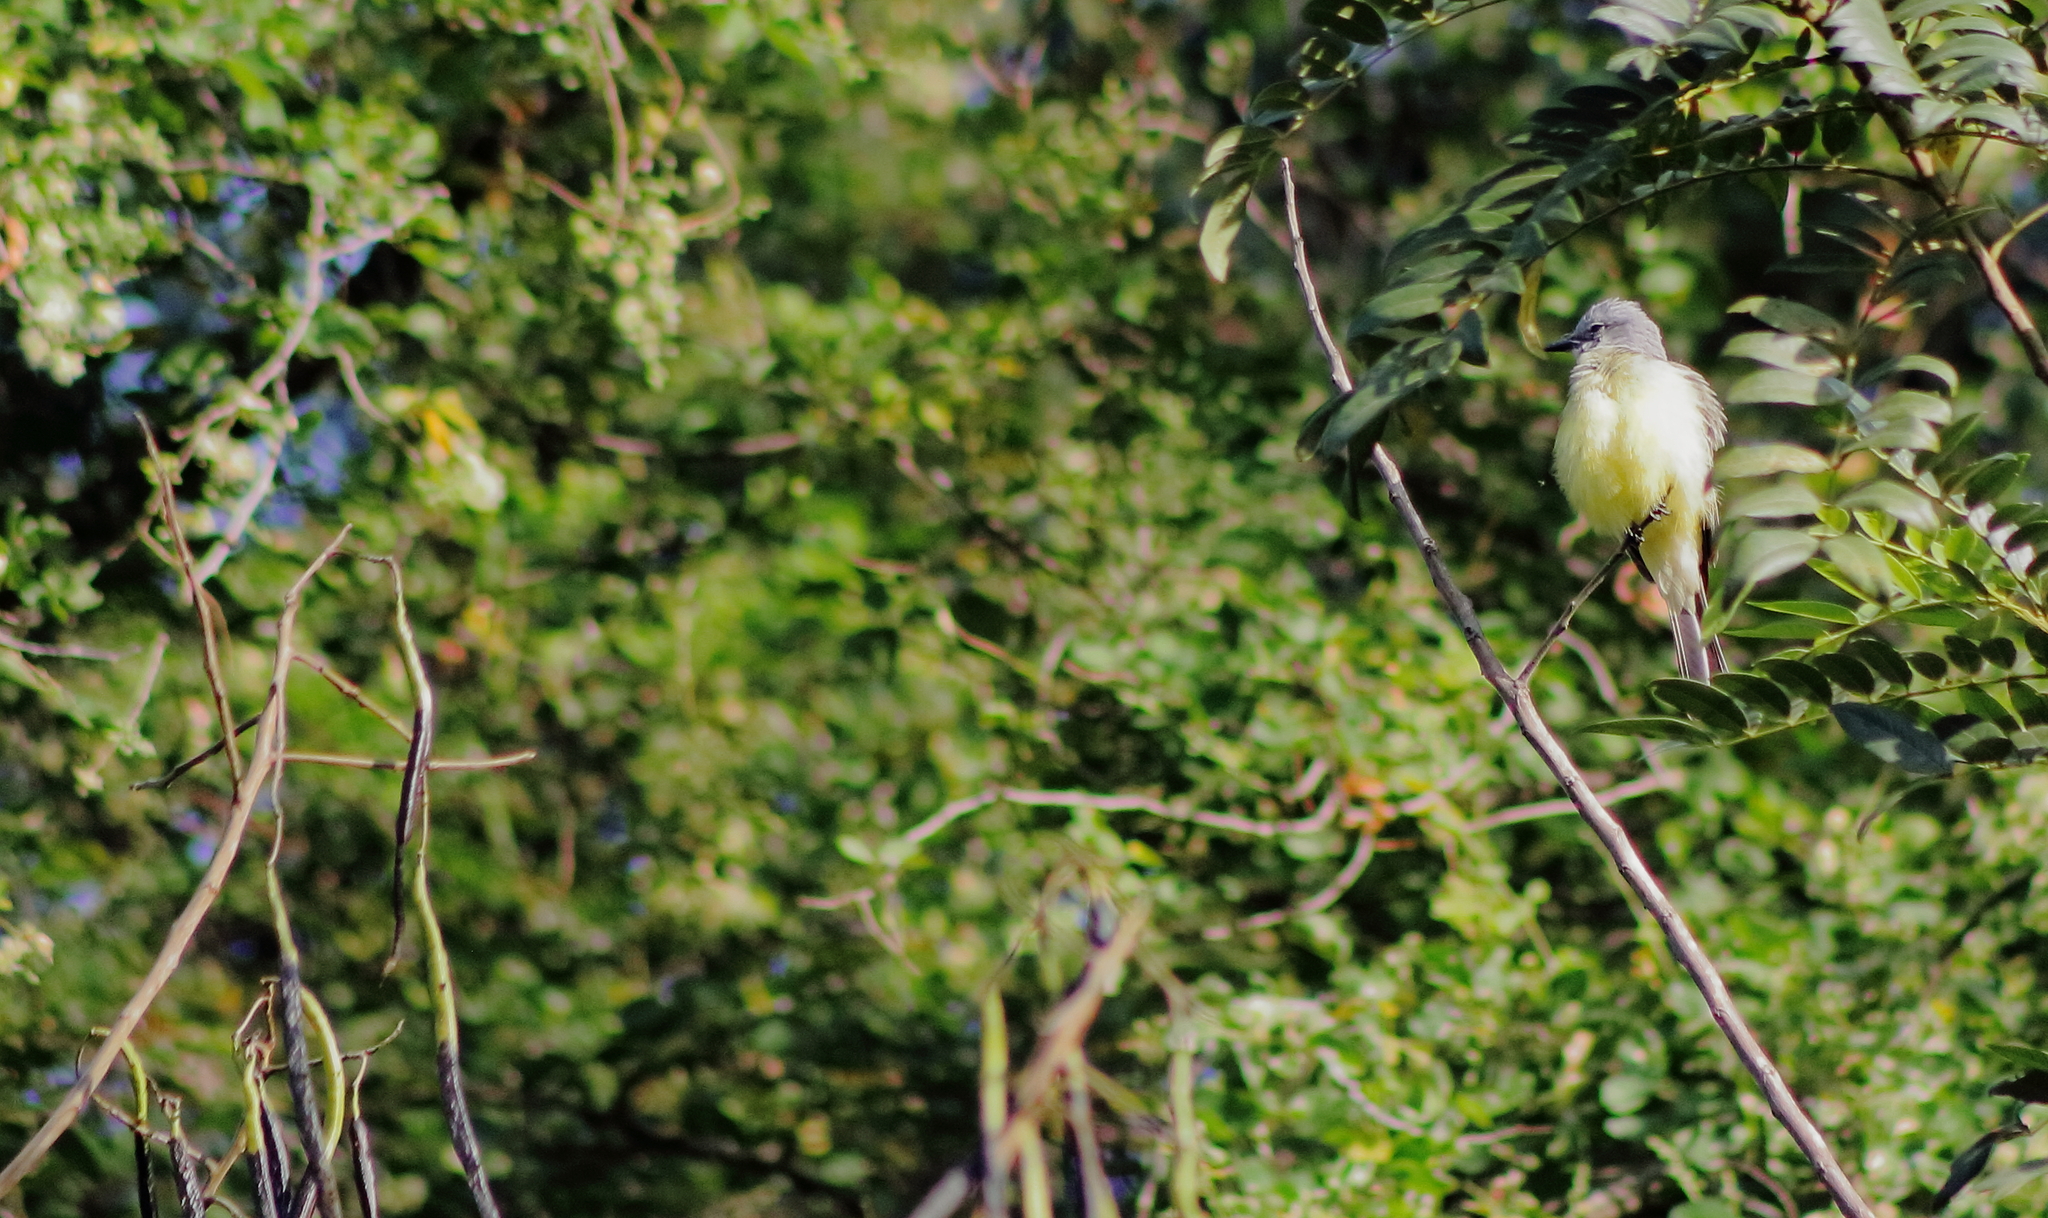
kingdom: Animalia
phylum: Chordata
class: Aves
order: Passeriformes
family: Tyrannidae
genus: Tyrannus
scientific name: Tyrannus melancholicus
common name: Tropical kingbird
